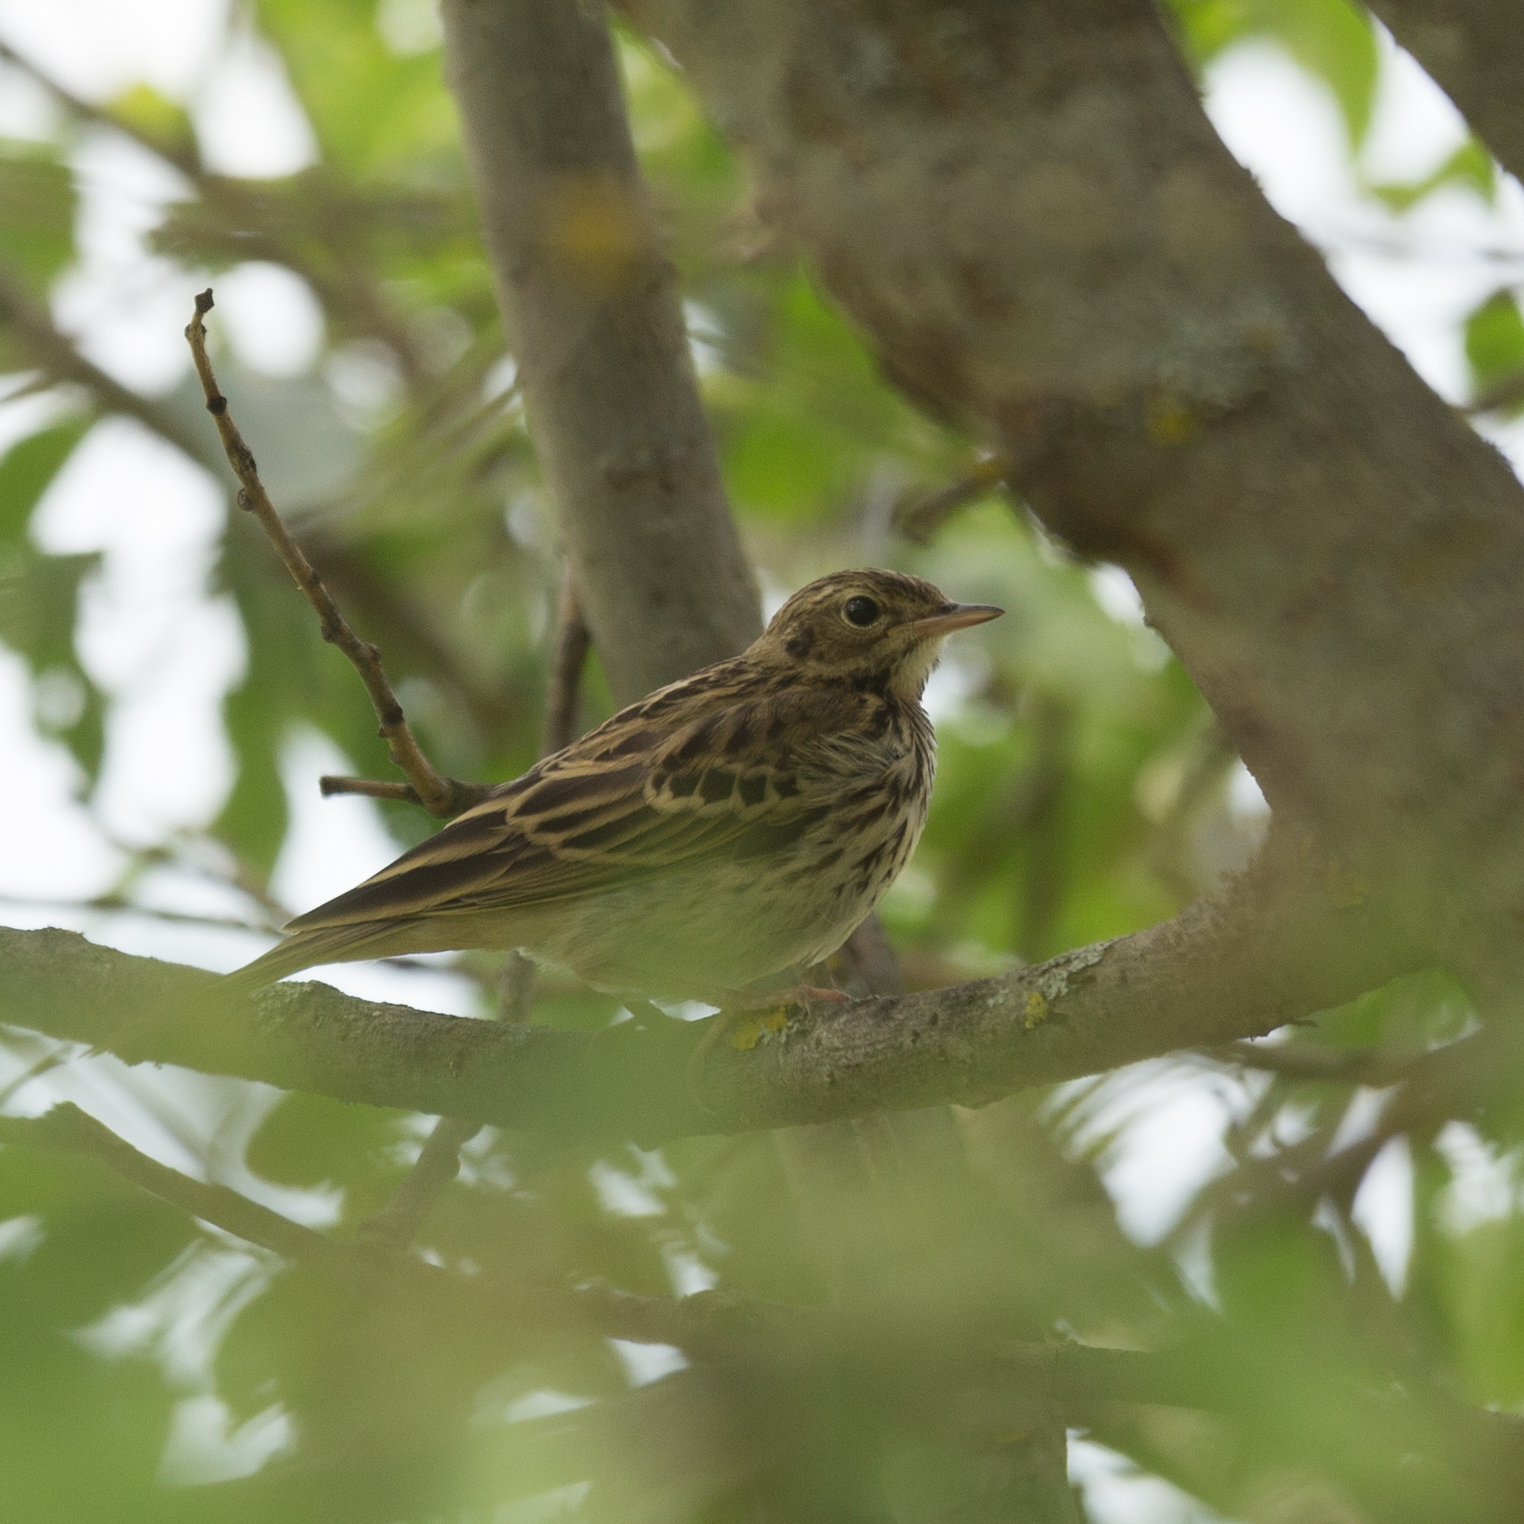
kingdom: Animalia
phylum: Chordata
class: Aves
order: Passeriformes
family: Motacillidae
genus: Anthus
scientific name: Anthus trivialis
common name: Tree pipit
